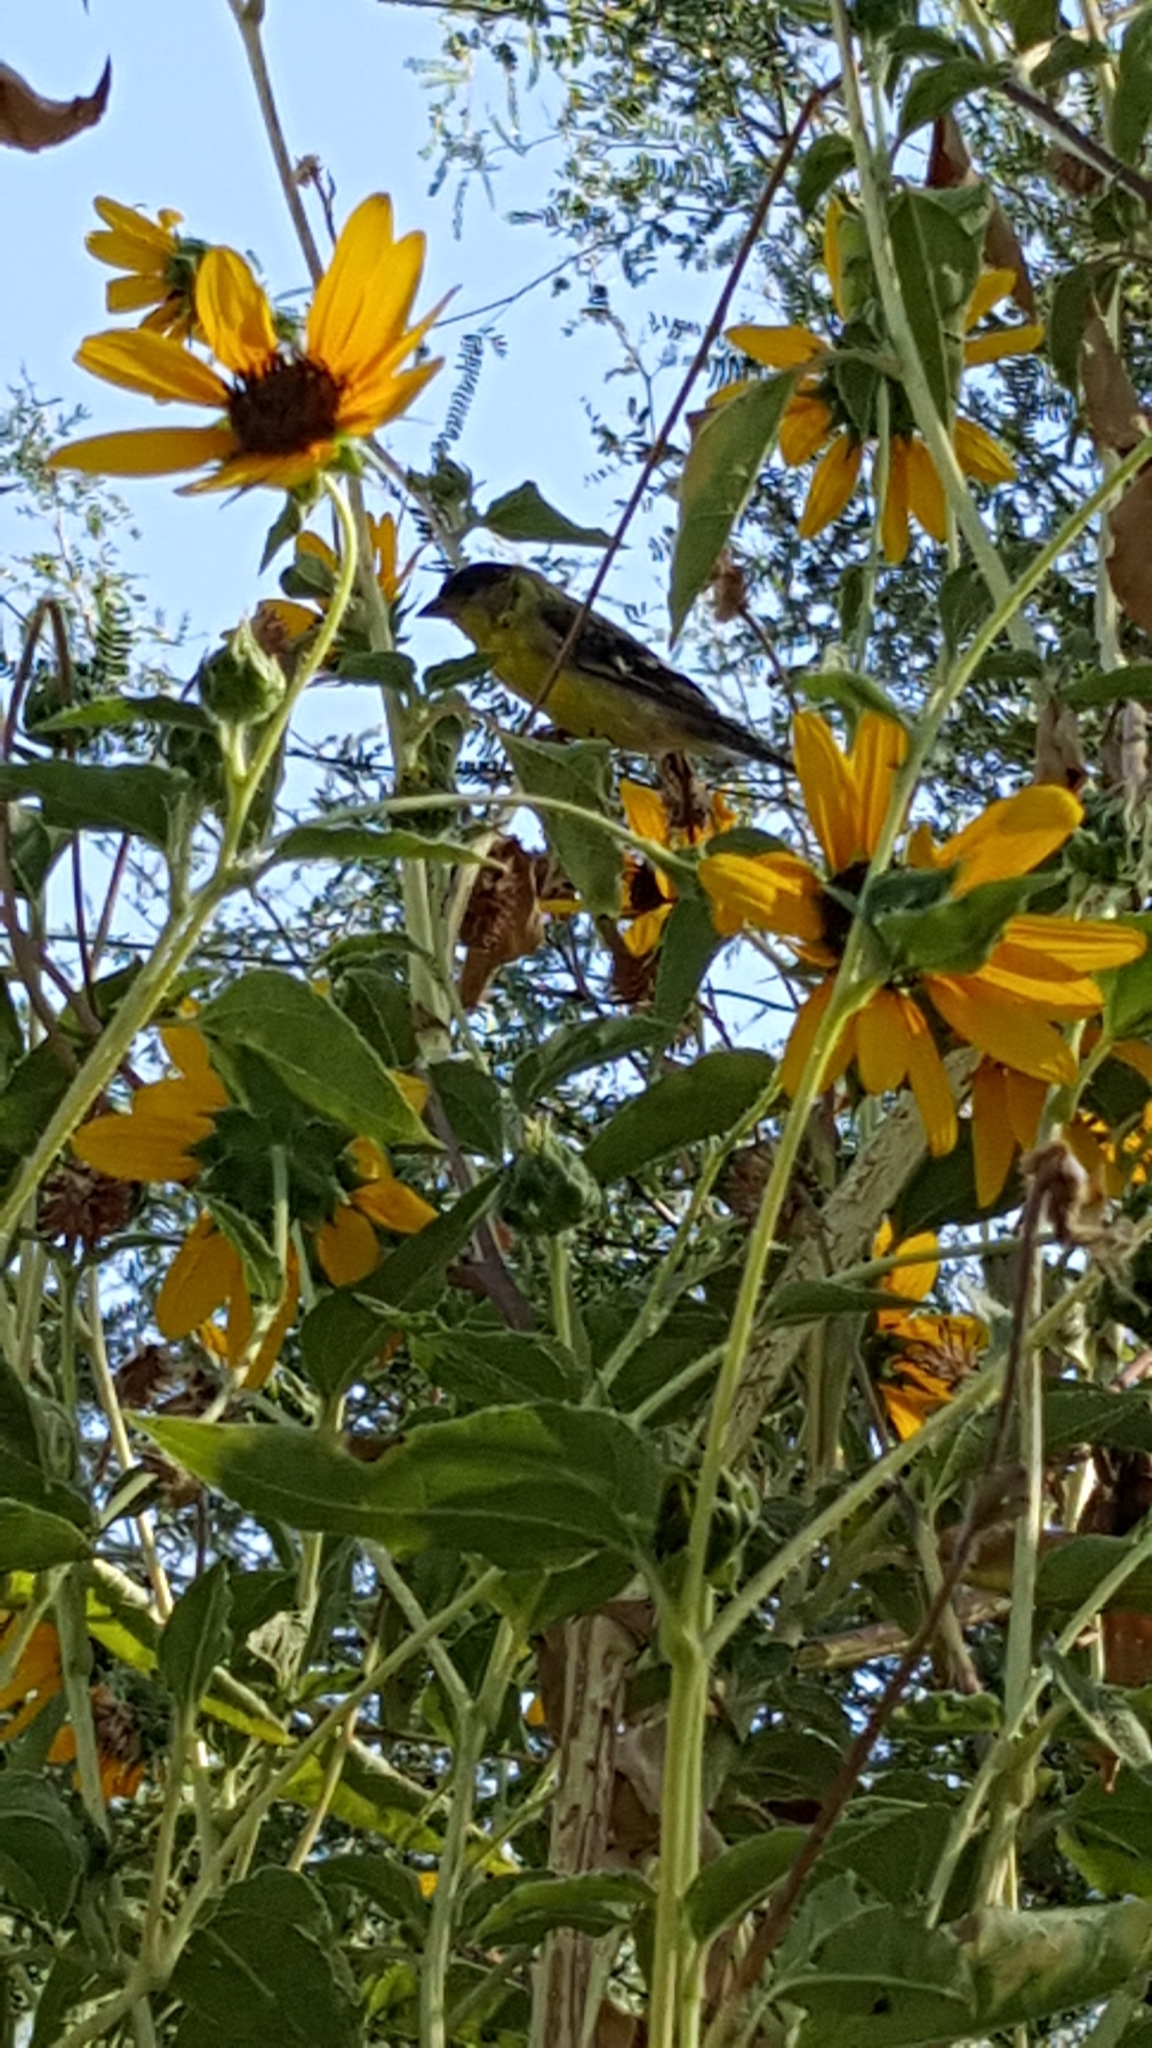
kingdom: Animalia
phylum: Chordata
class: Aves
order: Passeriformes
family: Fringillidae
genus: Spinus
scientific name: Spinus psaltria
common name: Lesser goldfinch
